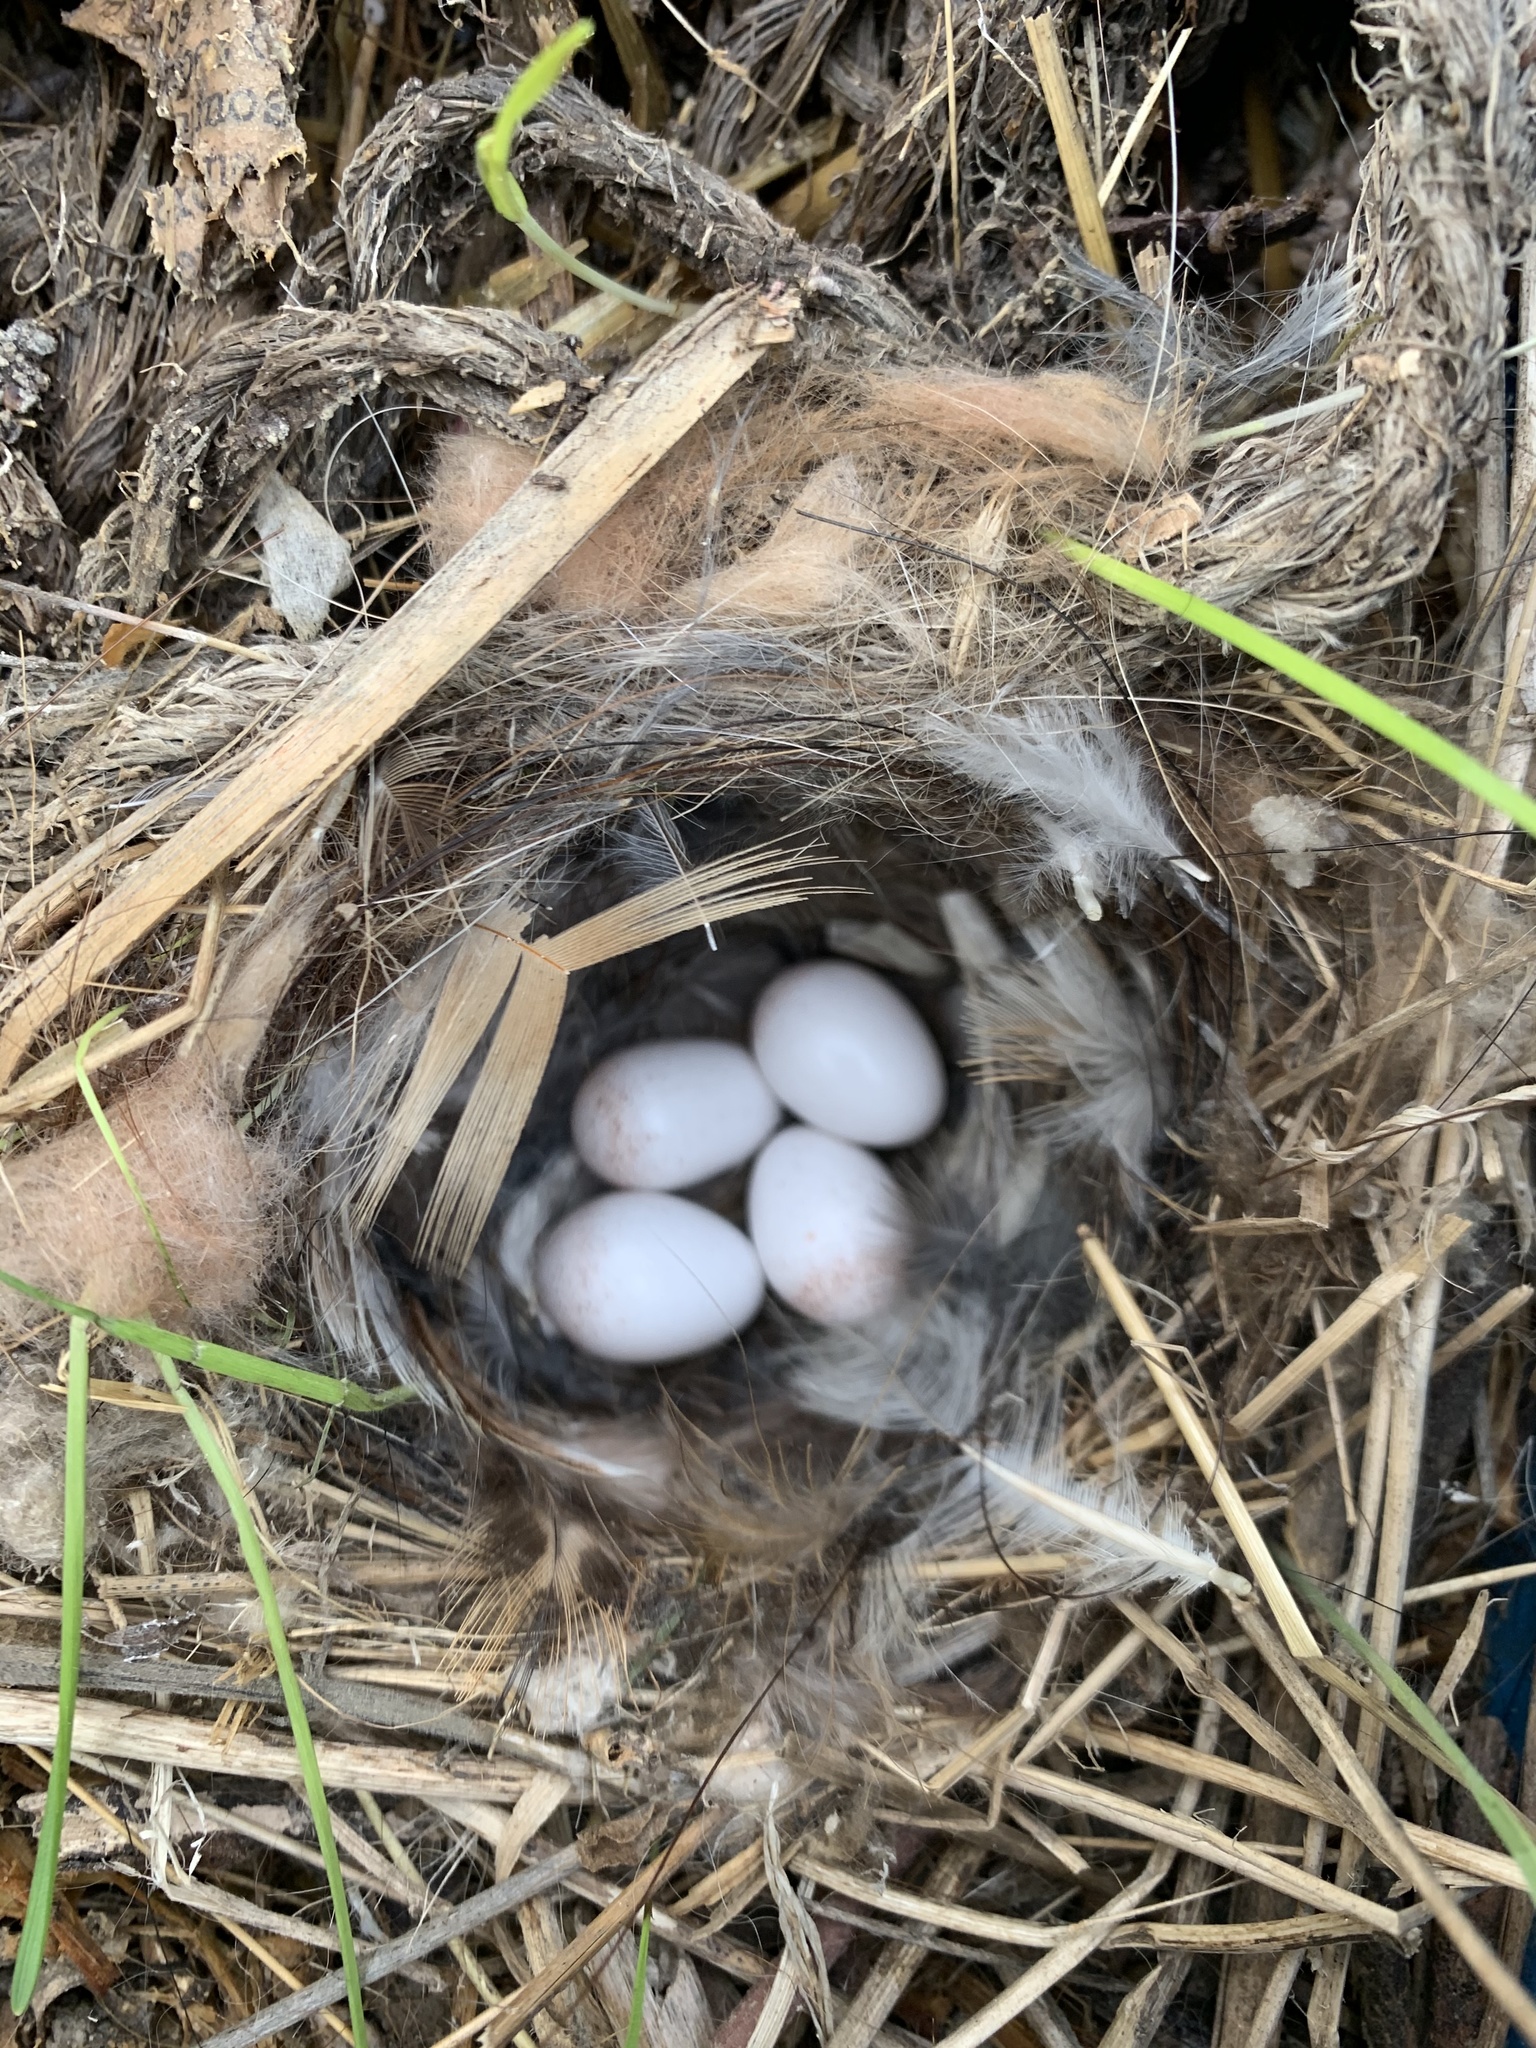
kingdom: Animalia
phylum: Chordata
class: Aves
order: Passeriformes
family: Troglodytidae
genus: Thryomanes
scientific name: Thryomanes bewickii
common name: Bewick's wren
